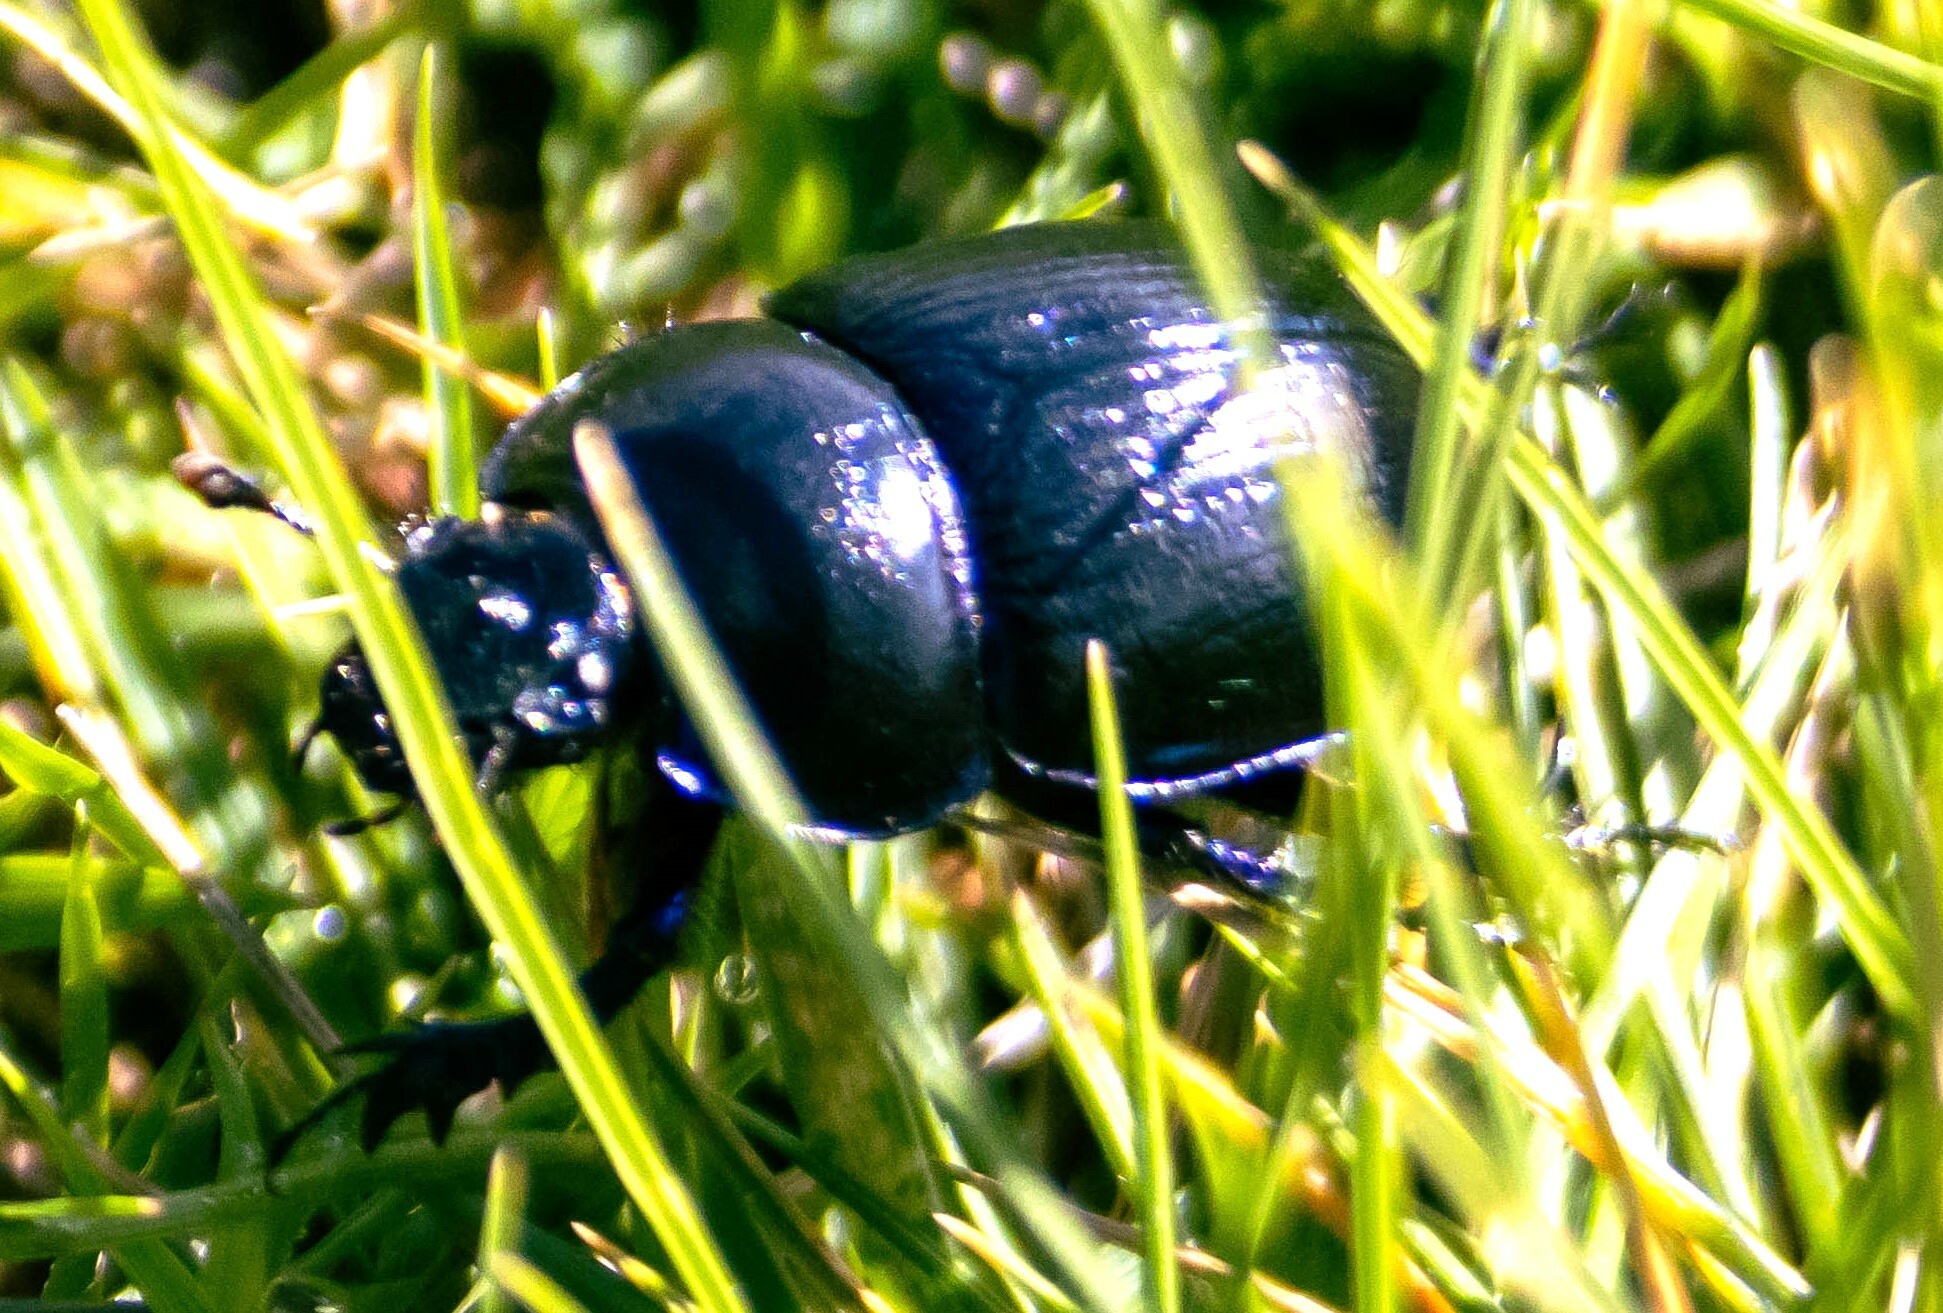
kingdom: Animalia
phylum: Arthropoda
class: Insecta
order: Coleoptera
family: Geotrupidae
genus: Anoplotrupes
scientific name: Anoplotrupes stercorosus
